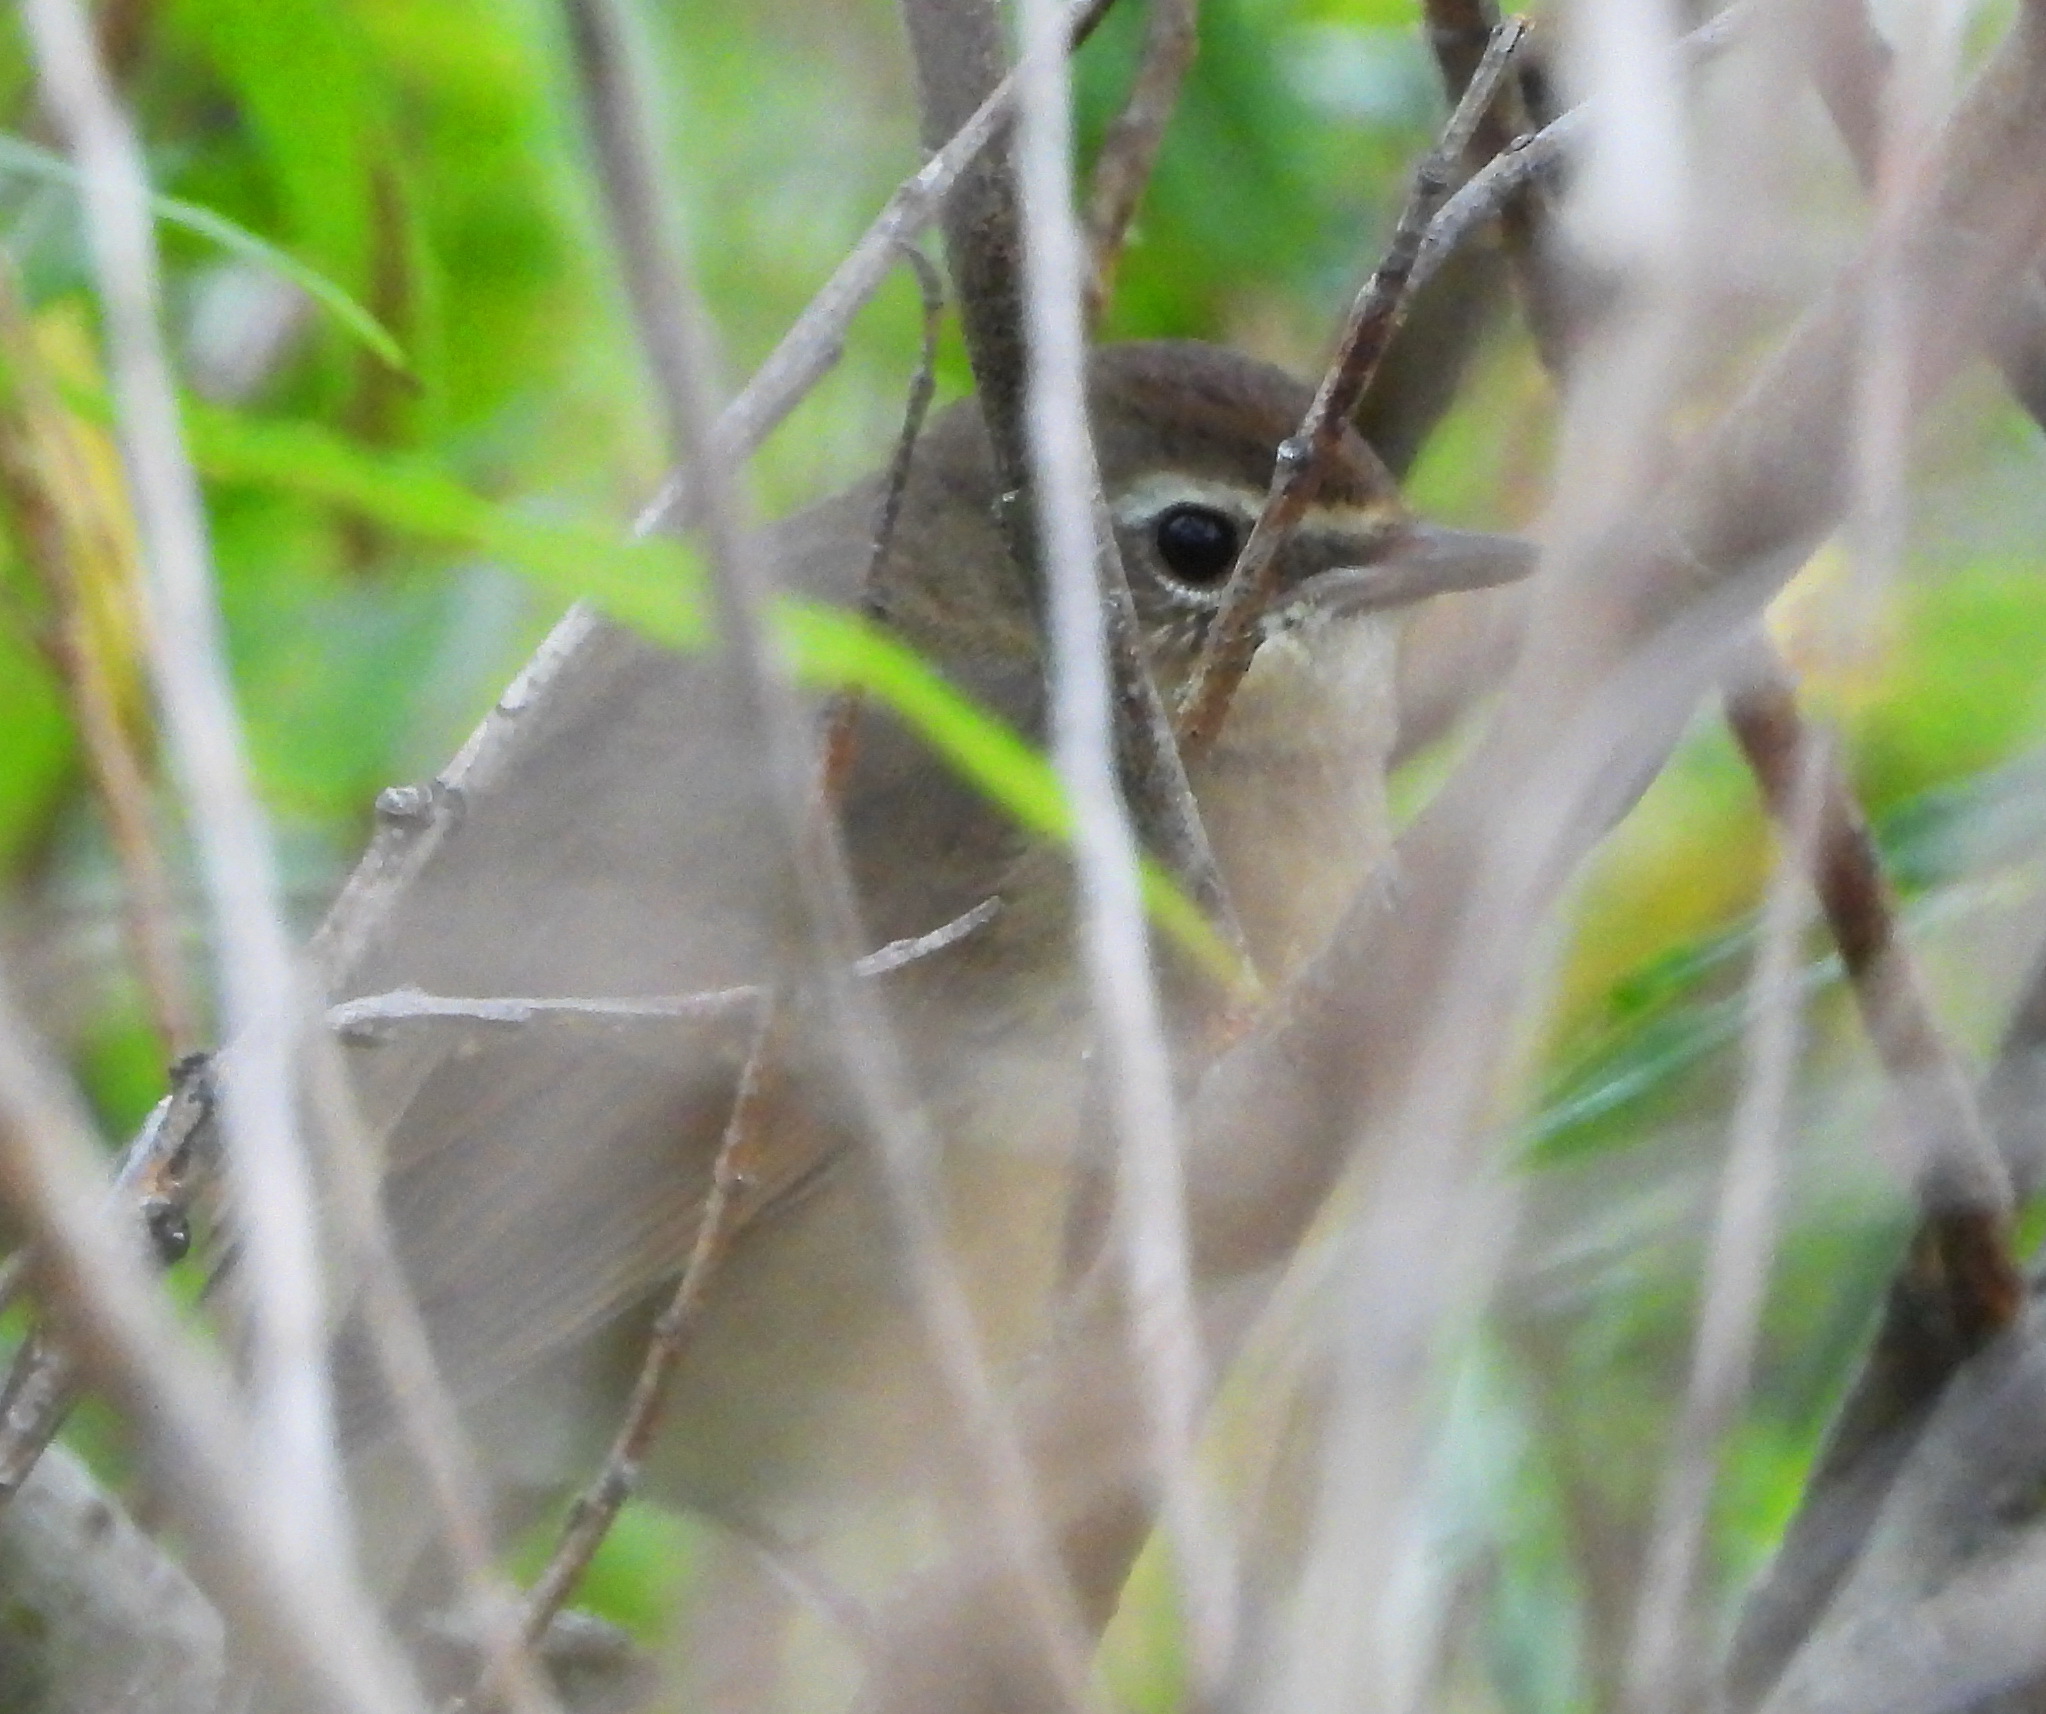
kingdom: Animalia
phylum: Chordata
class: Aves
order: Passeriformes
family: Muscicapidae
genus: Luscinia
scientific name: Luscinia calliope
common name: Siberian rubythroat
